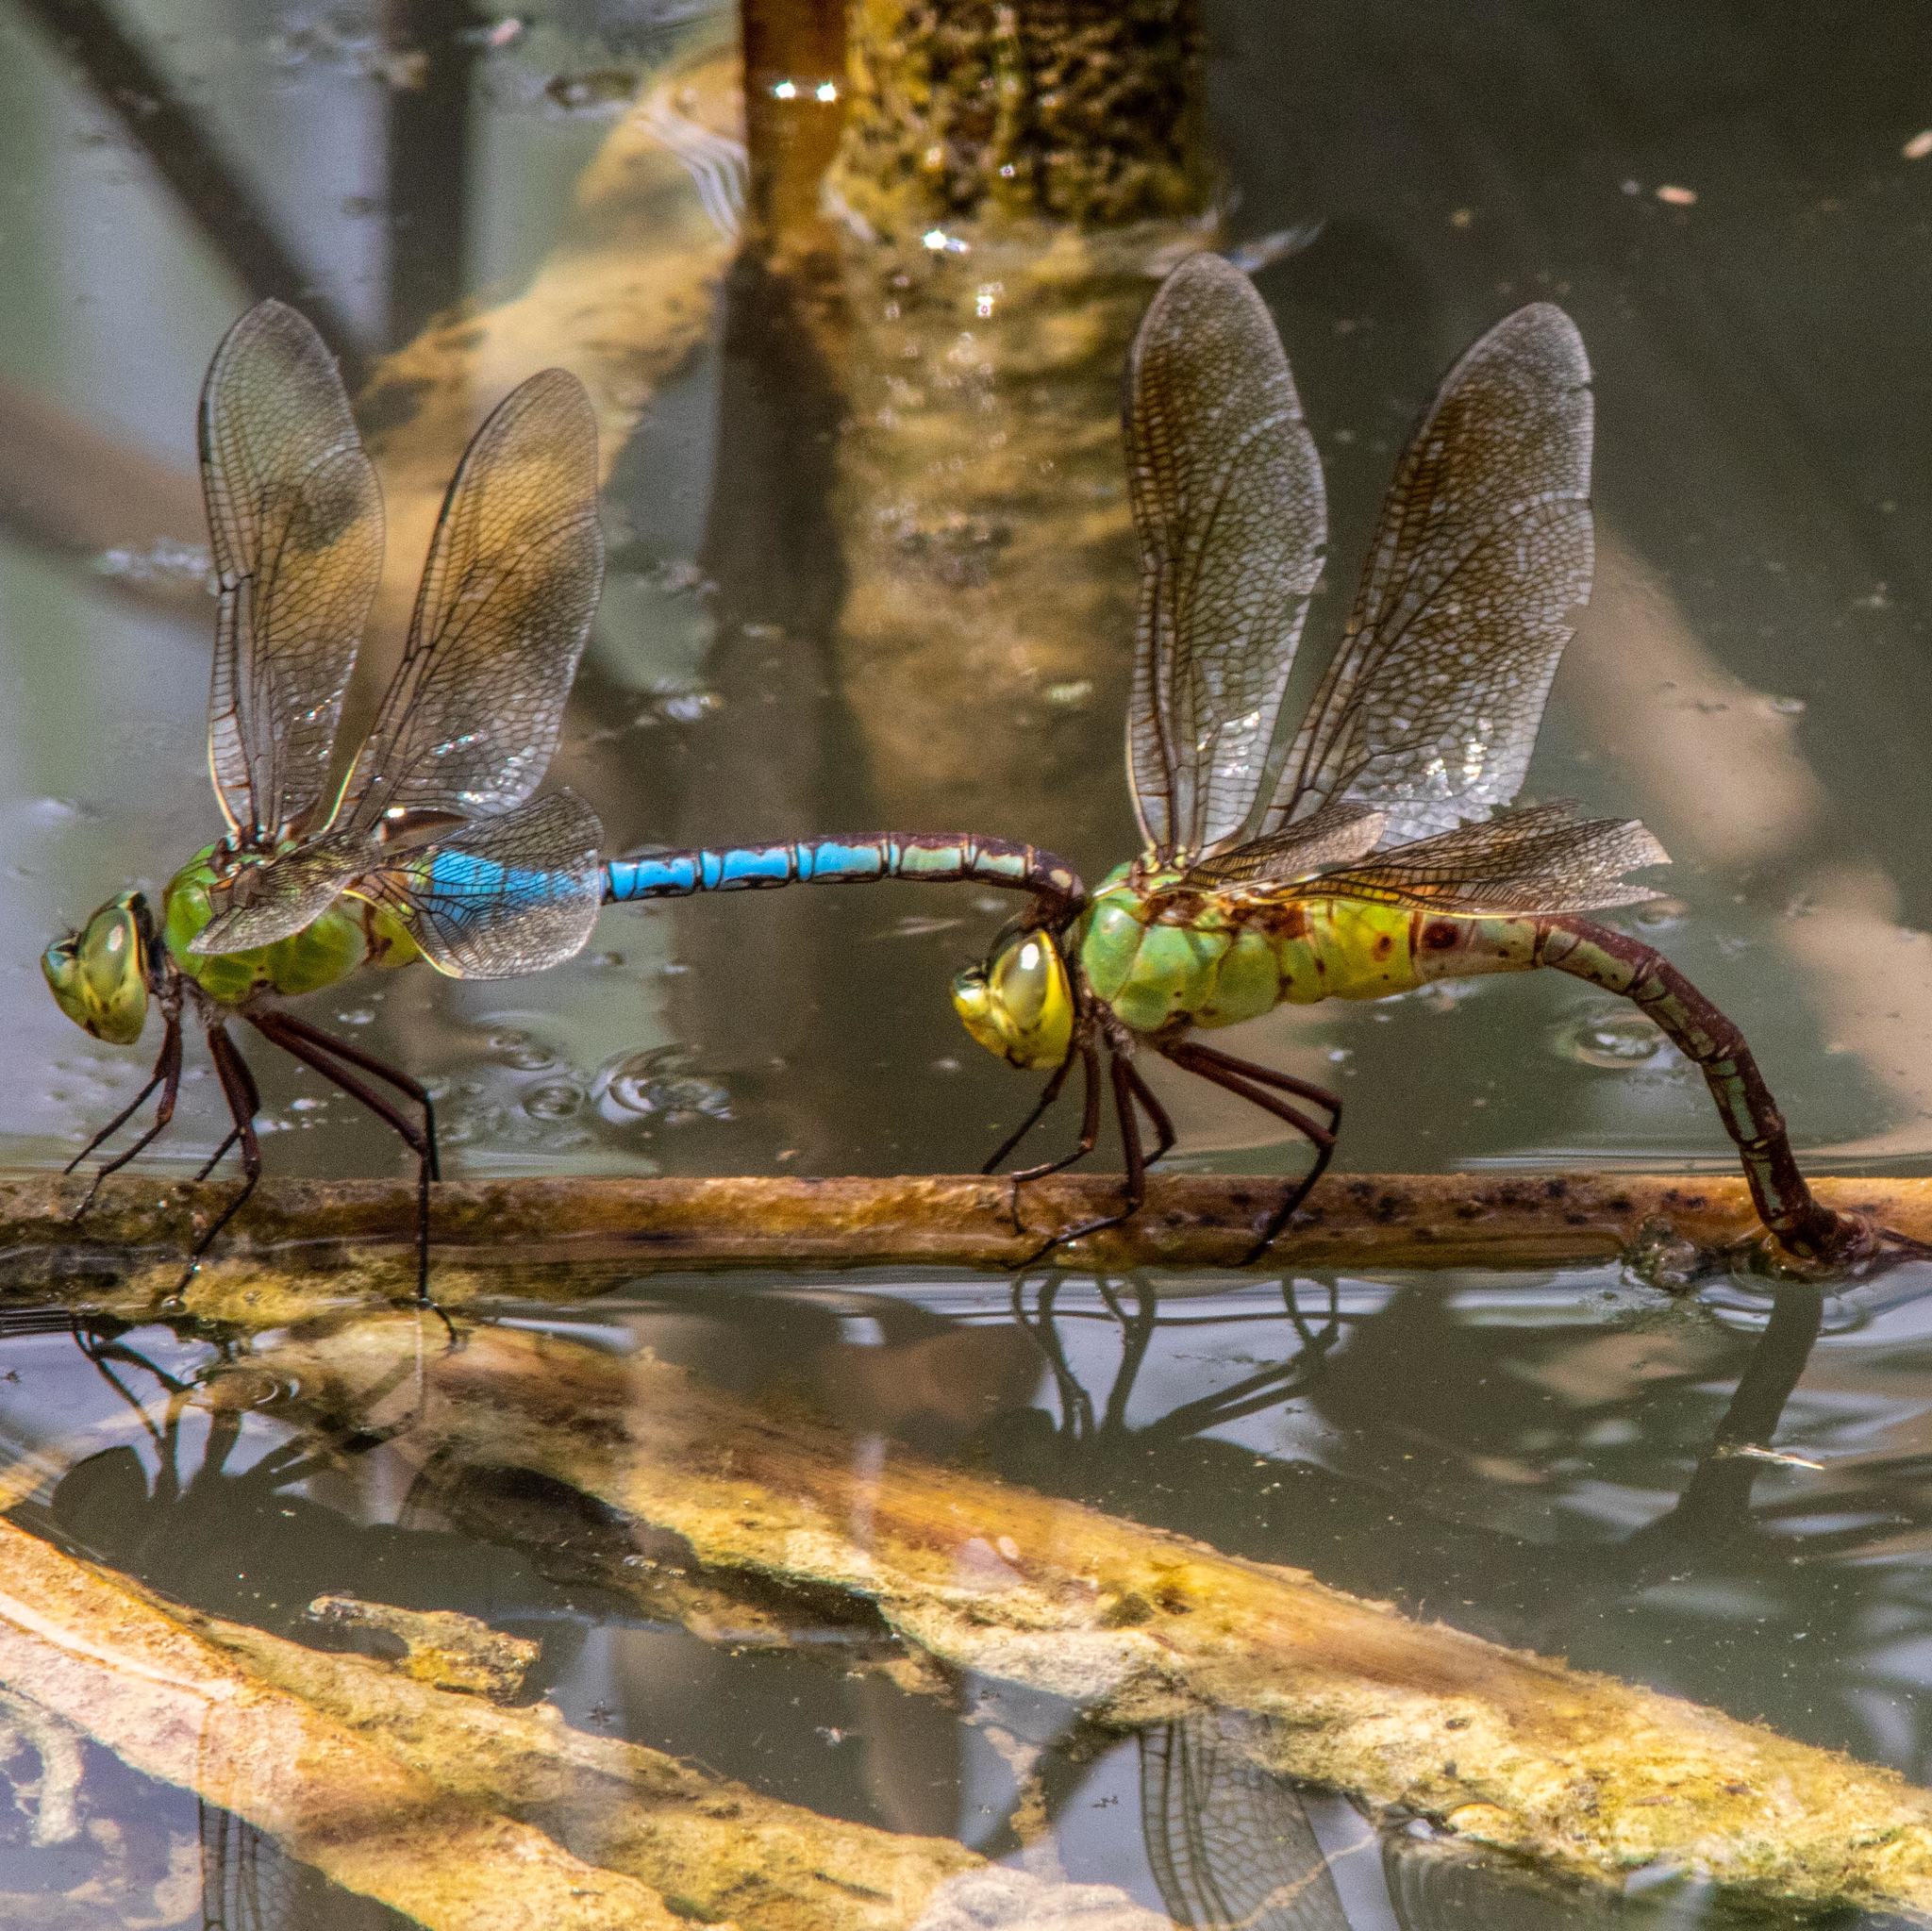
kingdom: Animalia
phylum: Arthropoda
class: Insecta
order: Odonata
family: Aeshnidae
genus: Anax
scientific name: Anax junius
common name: Common green darner
